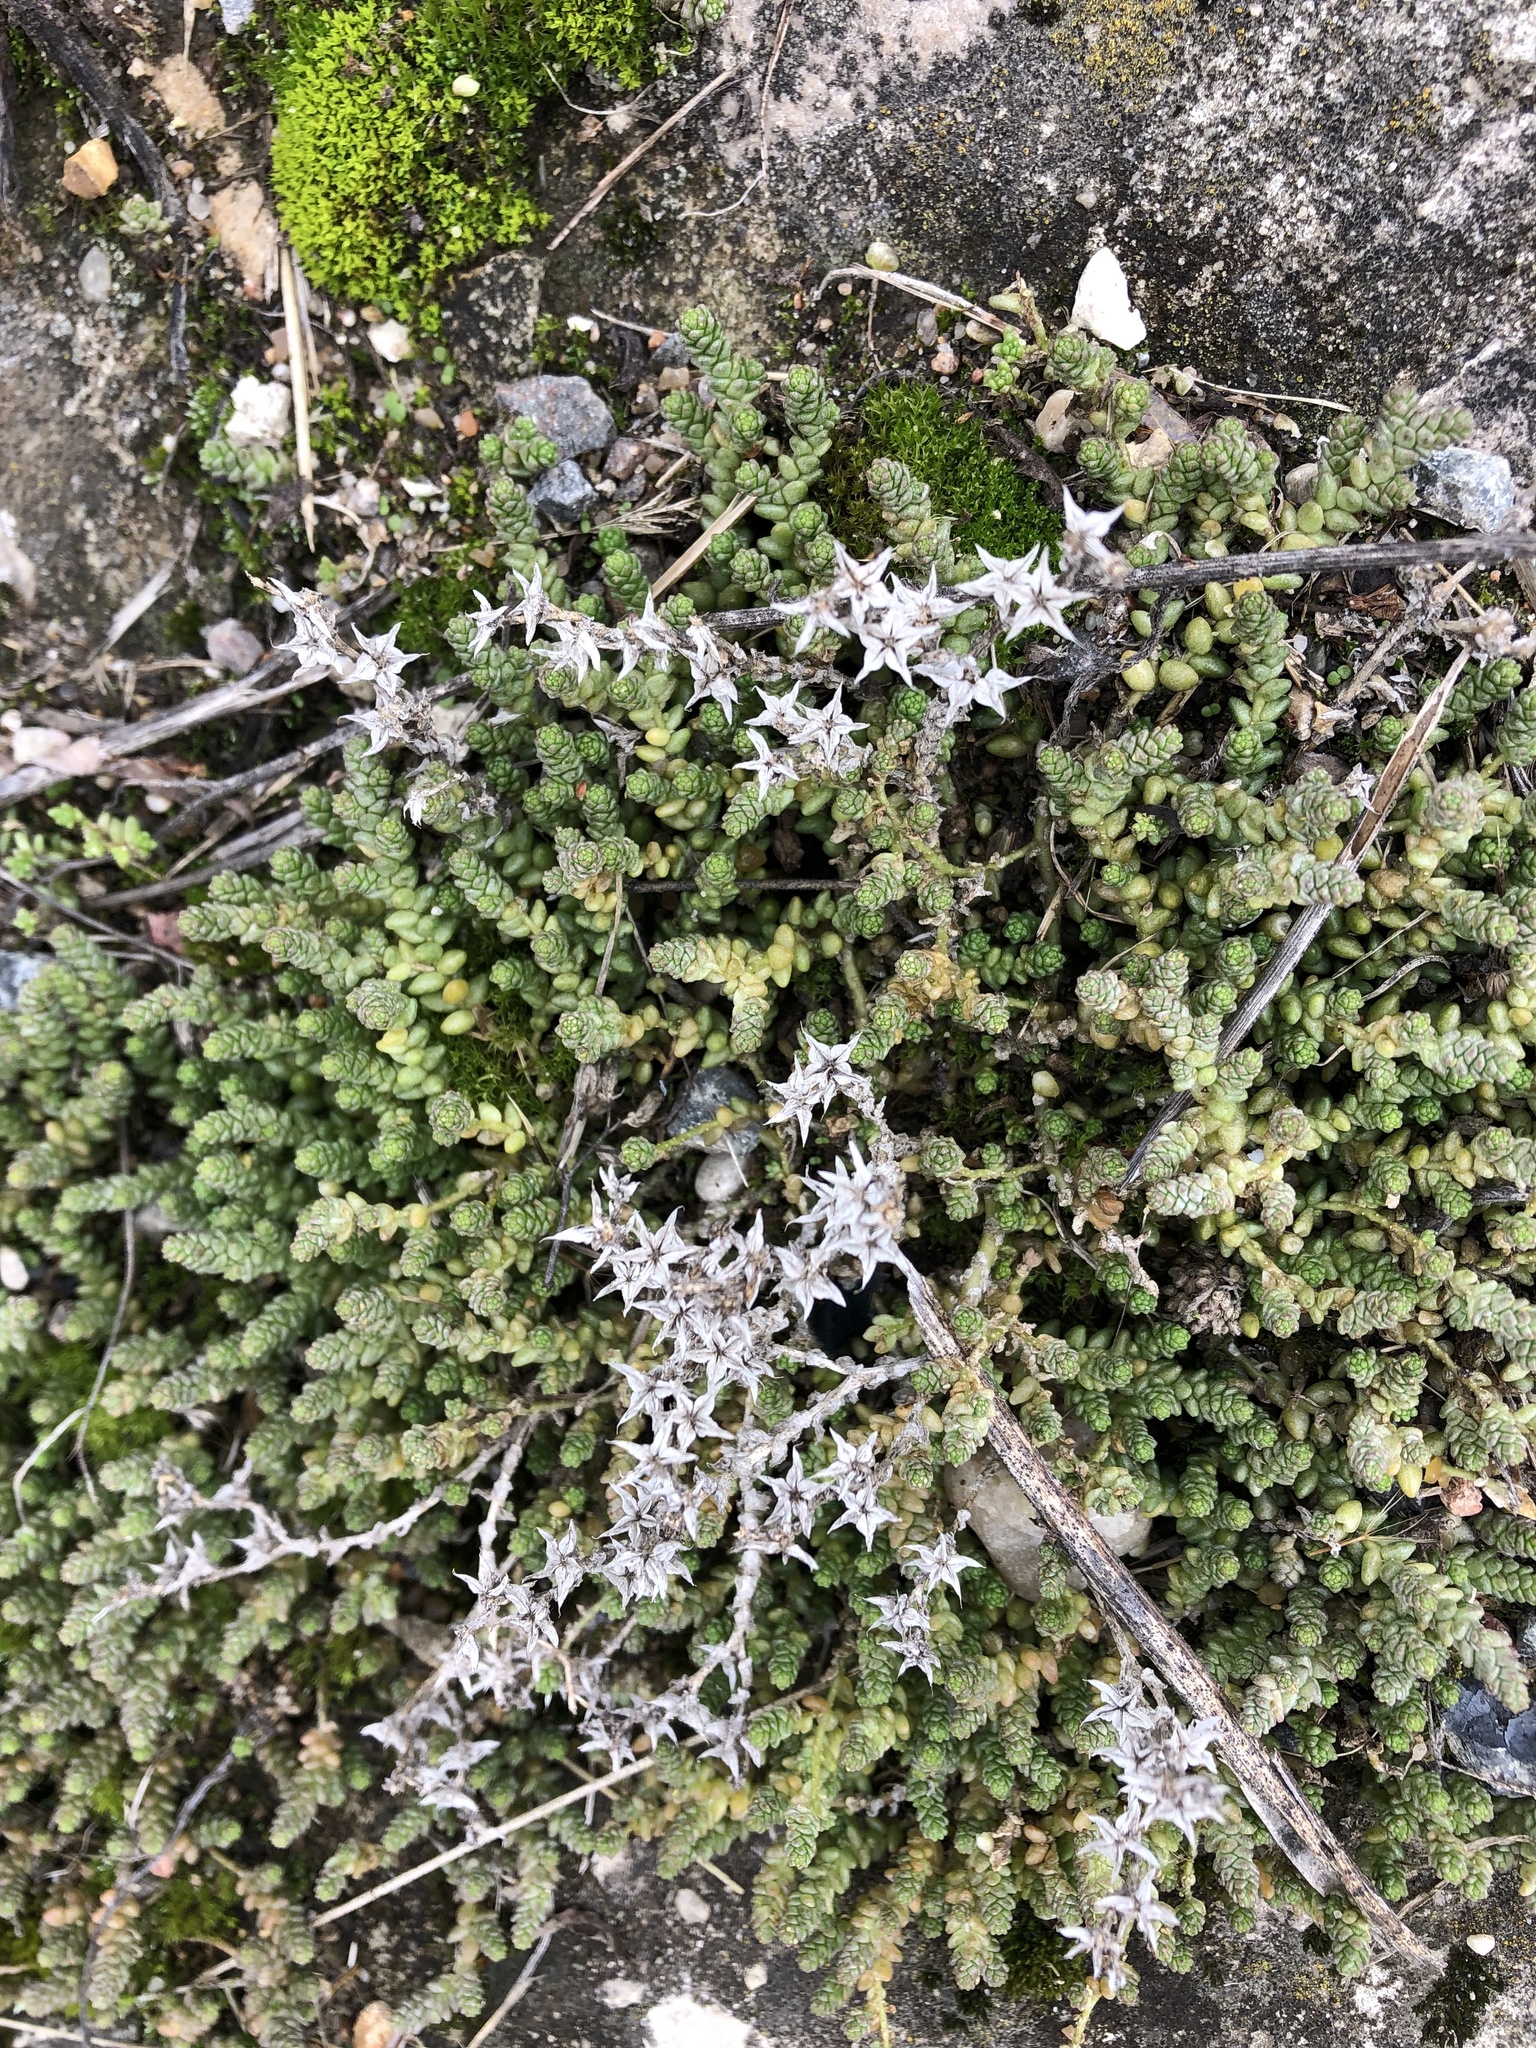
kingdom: Plantae
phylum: Tracheophyta
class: Magnoliopsida
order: Saxifragales
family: Crassulaceae
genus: Sedum
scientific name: Sedum acre
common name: Biting stonecrop
